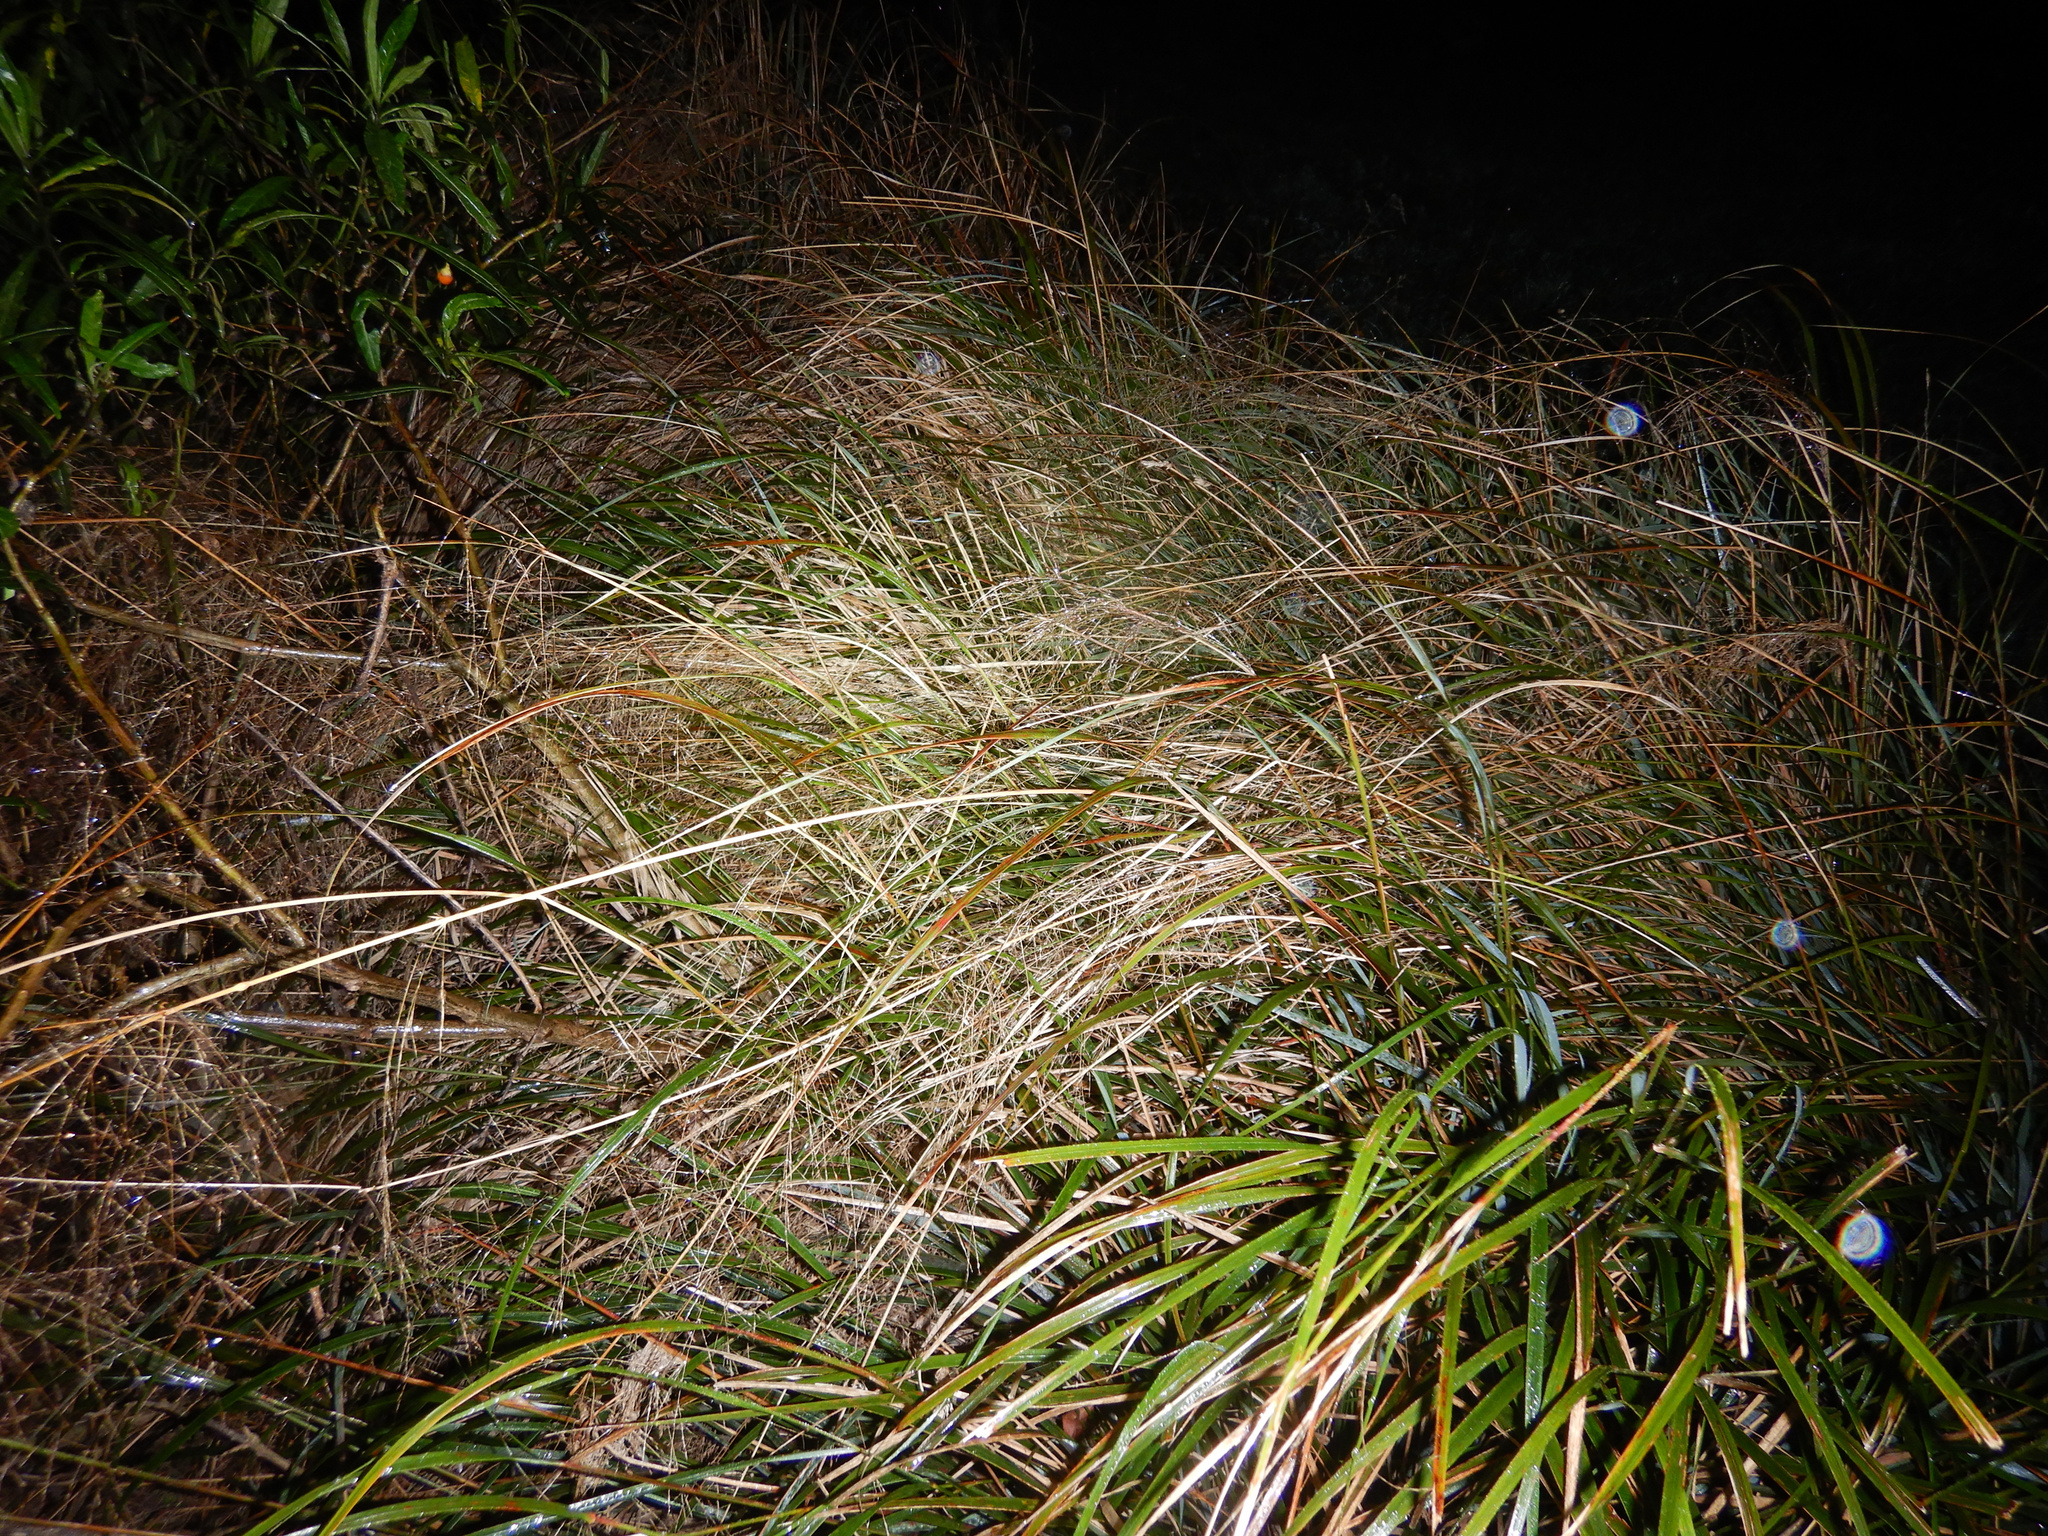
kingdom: Plantae
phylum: Tracheophyta
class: Liliopsida
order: Poales
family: Poaceae
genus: Anemanthele
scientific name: Anemanthele lessoniana
